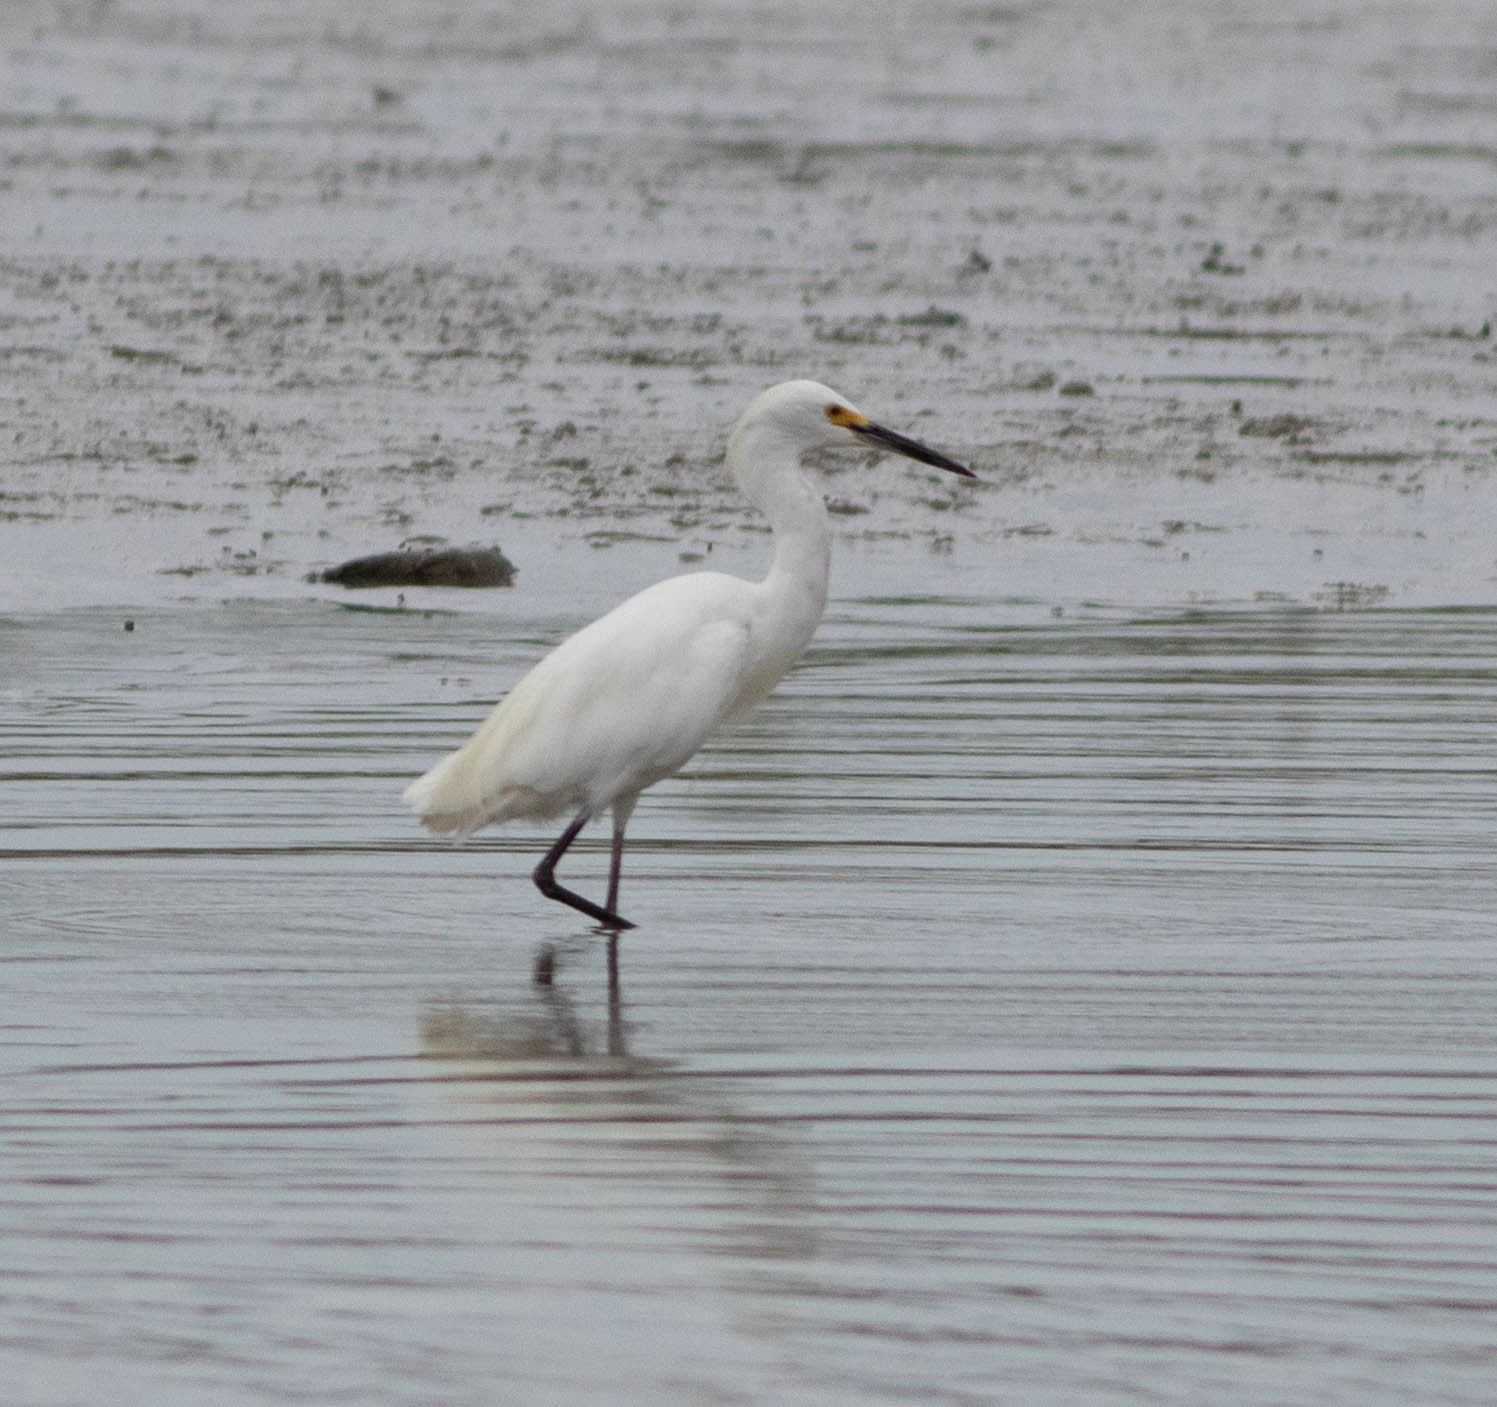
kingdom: Animalia
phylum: Chordata
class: Aves
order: Pelecaniformes
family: Ardeidae
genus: Egretta
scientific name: Egretta thula
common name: Snowy egret
